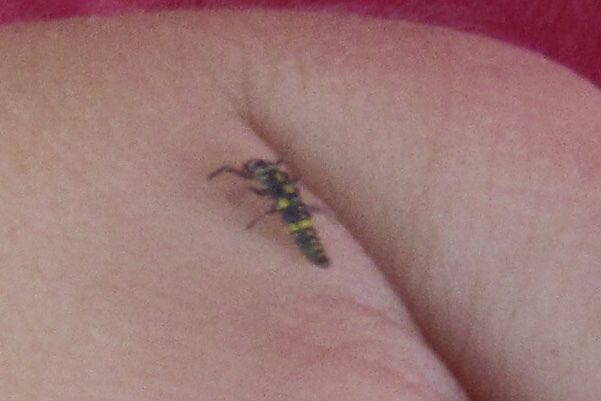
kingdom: Animalia
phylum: Arthropoda
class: Insecta
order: Coleoptera
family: Coccinellidae
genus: Hippodamia
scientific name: Hippodamia convergens
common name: Convergent lady beetle
